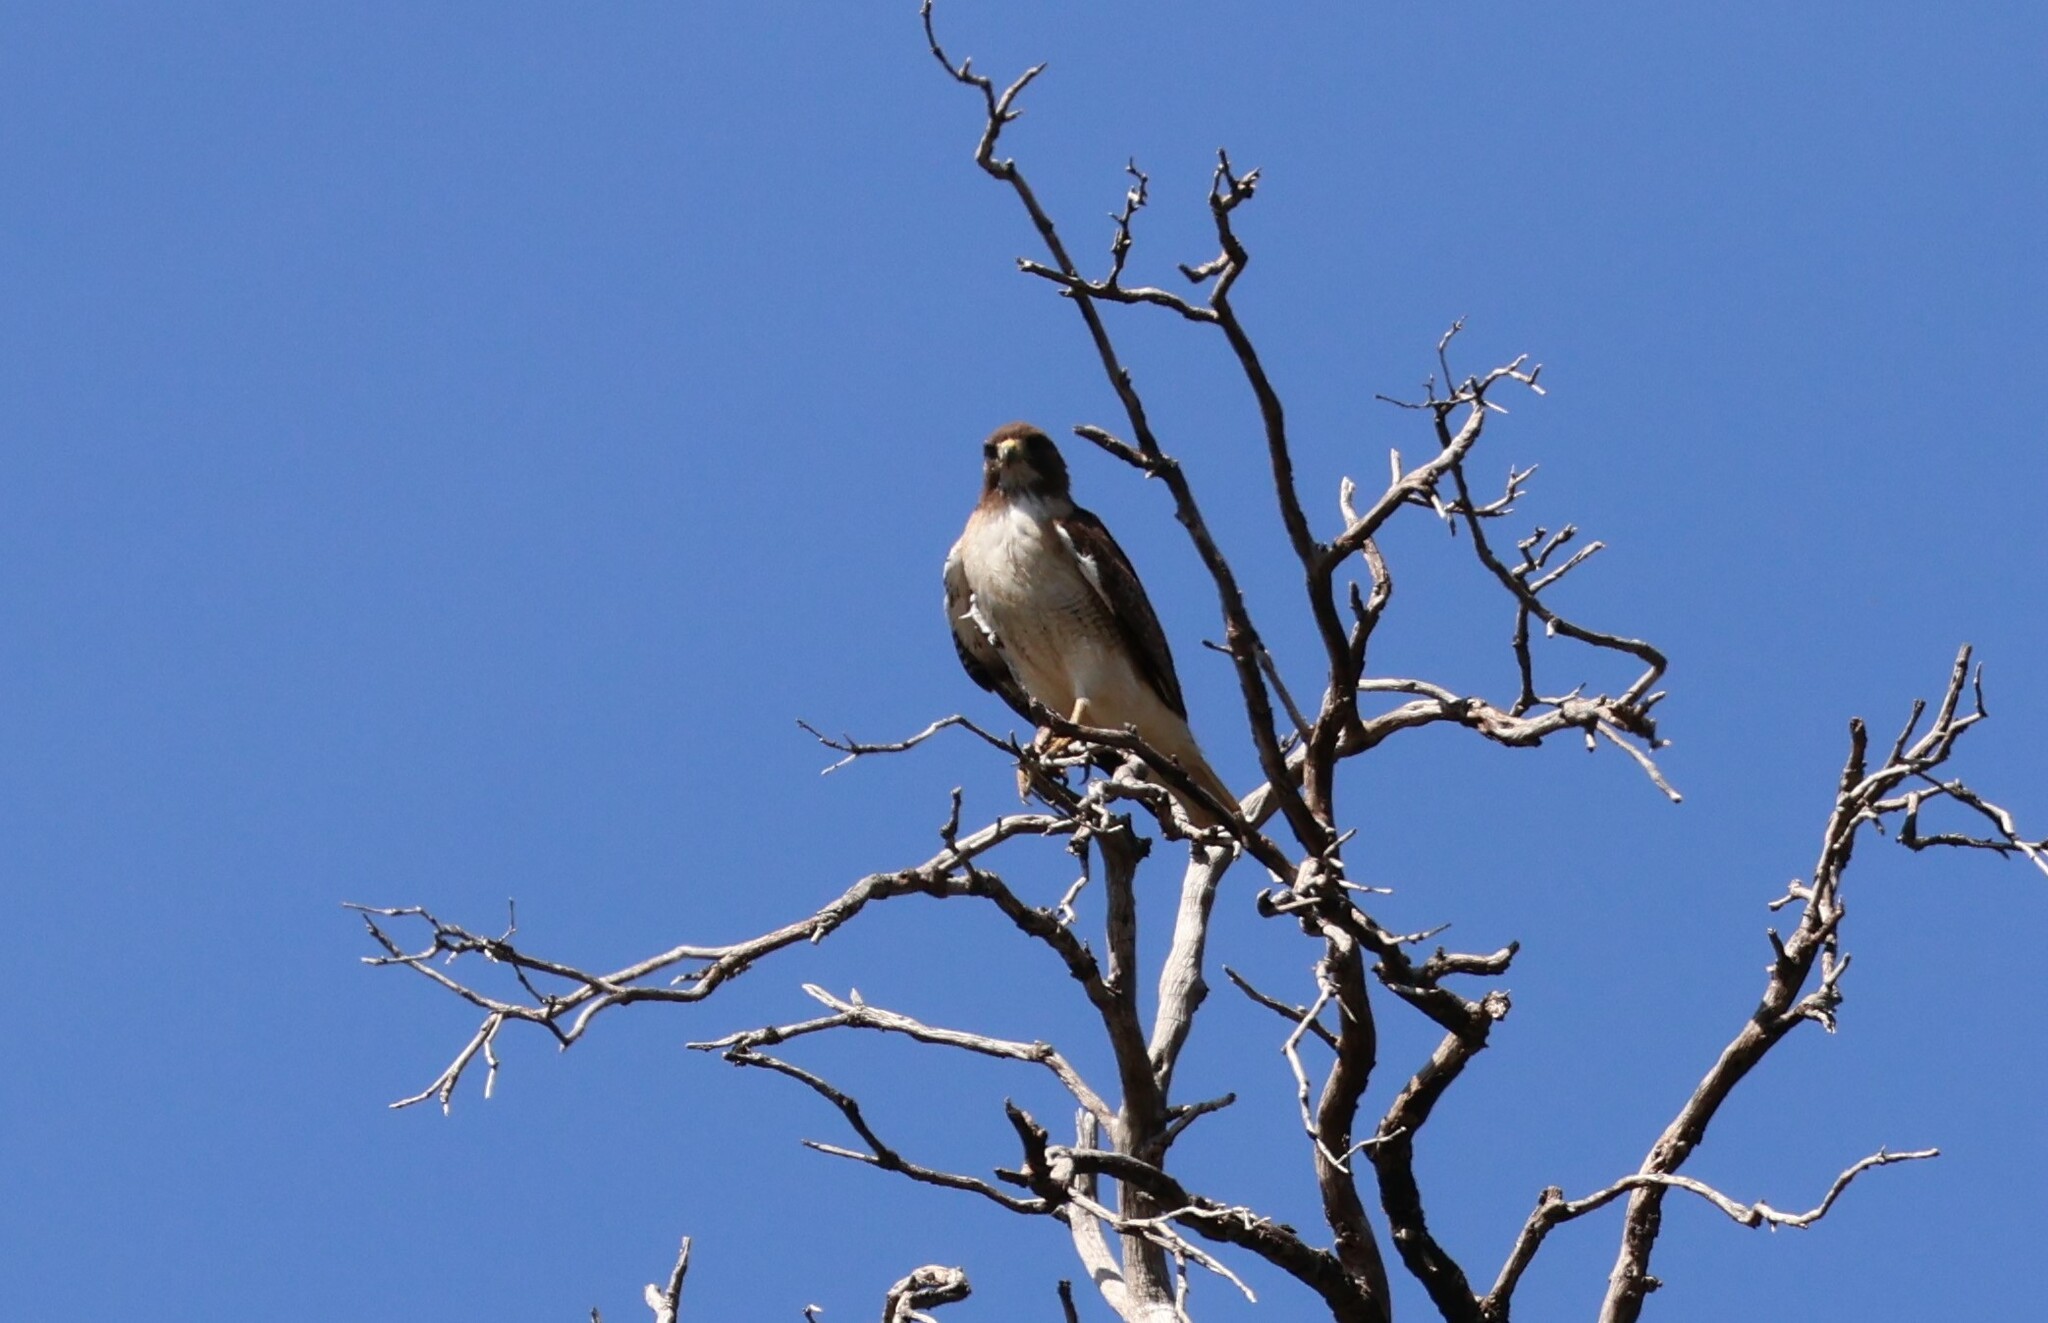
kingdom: Animalia
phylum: Chordata
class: Aves
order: Accipitriformes
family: Accipitridae
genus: Buteo
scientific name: Buteo jamaicensis
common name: Red-tailed hawk
